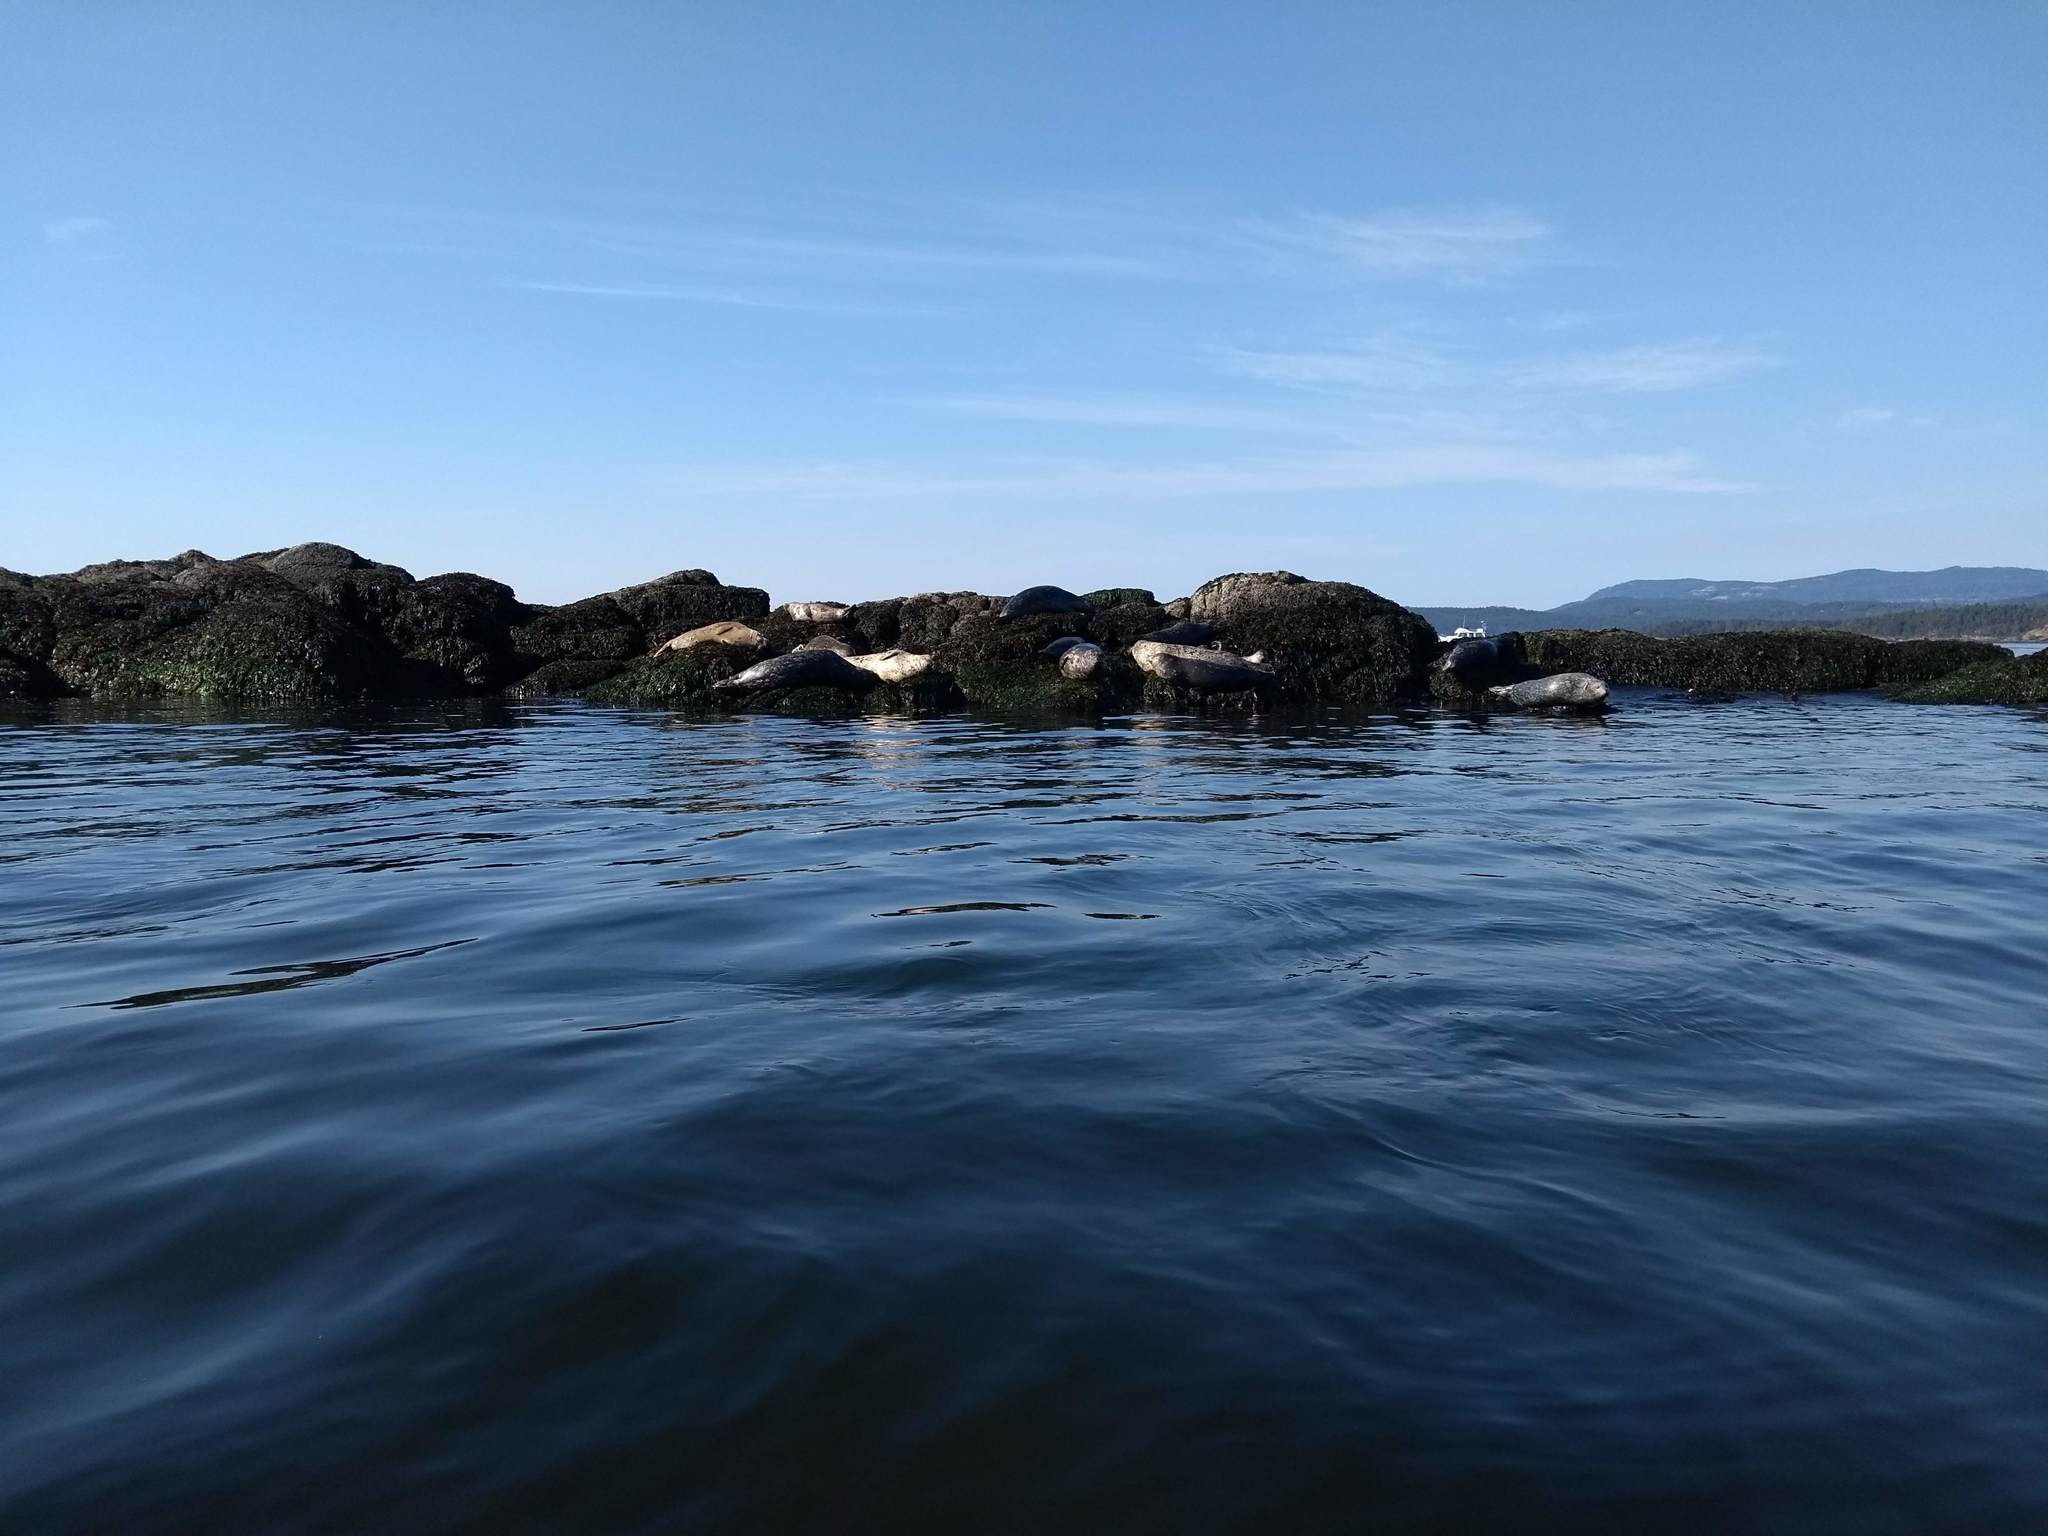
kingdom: Animalia
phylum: Chordata
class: Mammalia
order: Carnivora
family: Phocidae
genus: Phoca
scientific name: Phoca vitulina
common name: Harbor seal
